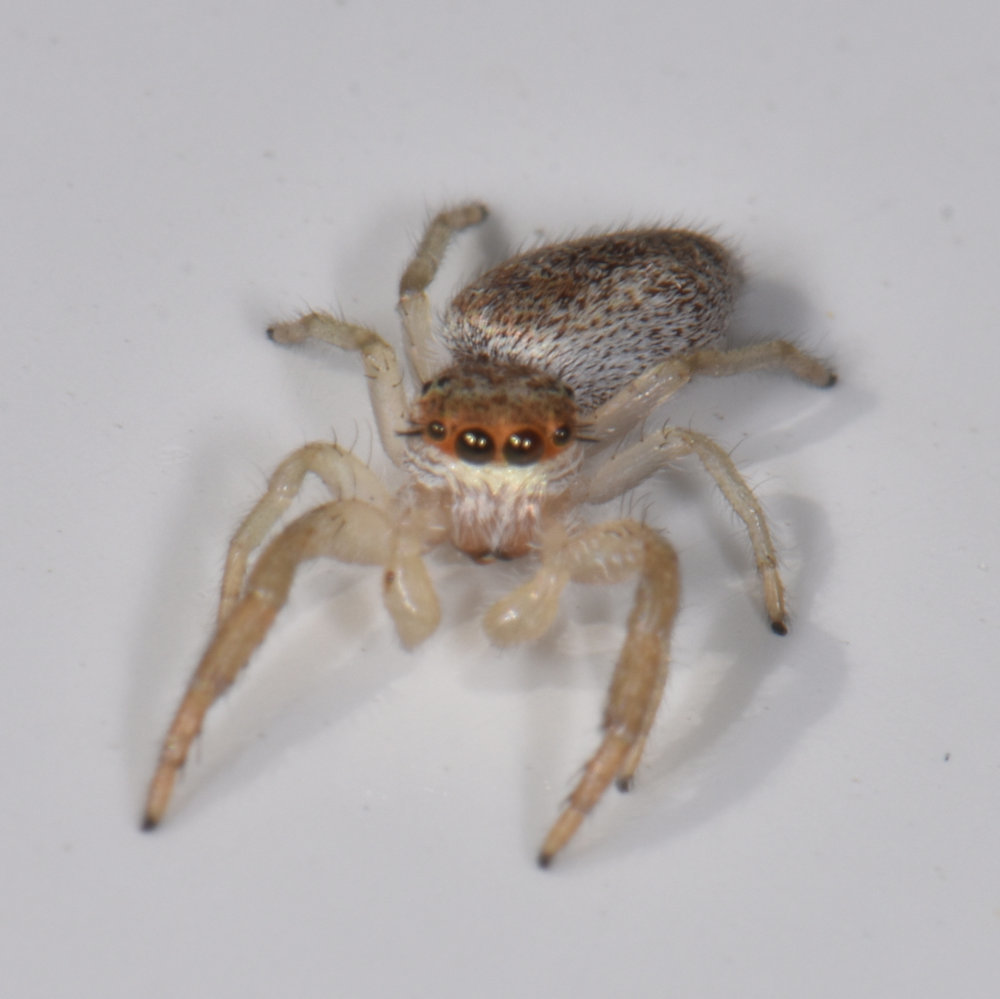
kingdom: Animalia
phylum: Arthropoda
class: Arachnida
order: Araneae
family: Salticidae
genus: Hentzia
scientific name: Hentzia mitrata
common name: White-jawed jumping spider
